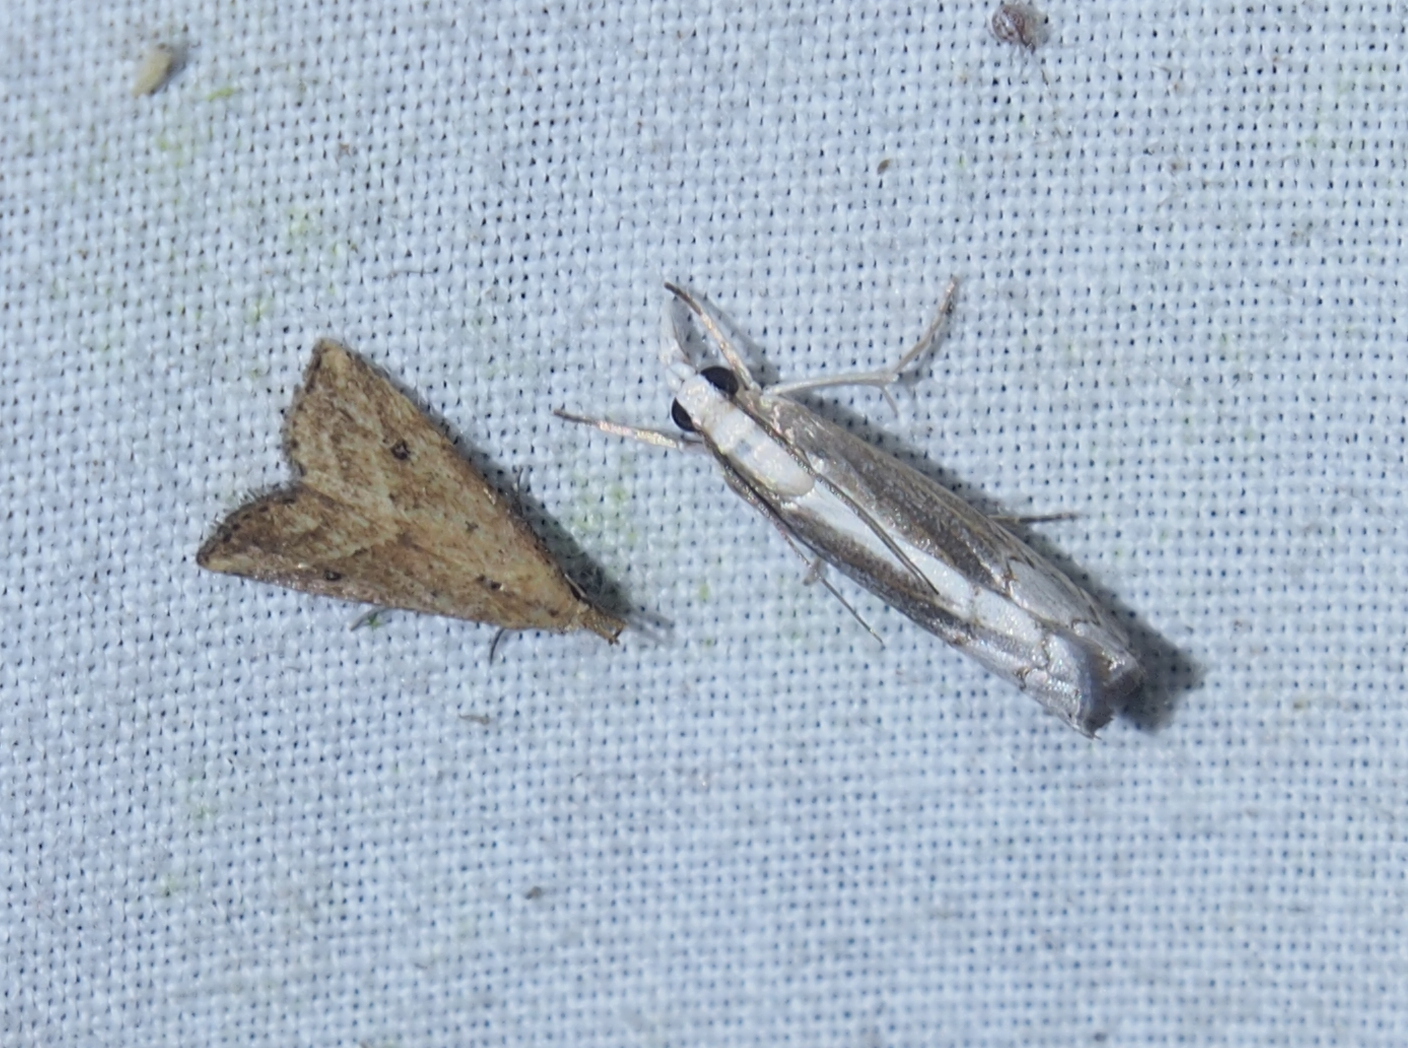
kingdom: Animalia
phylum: Arthropoda
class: Insecta
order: Lepidoptera
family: Erebidae
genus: Schrankia
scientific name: Schrankia
